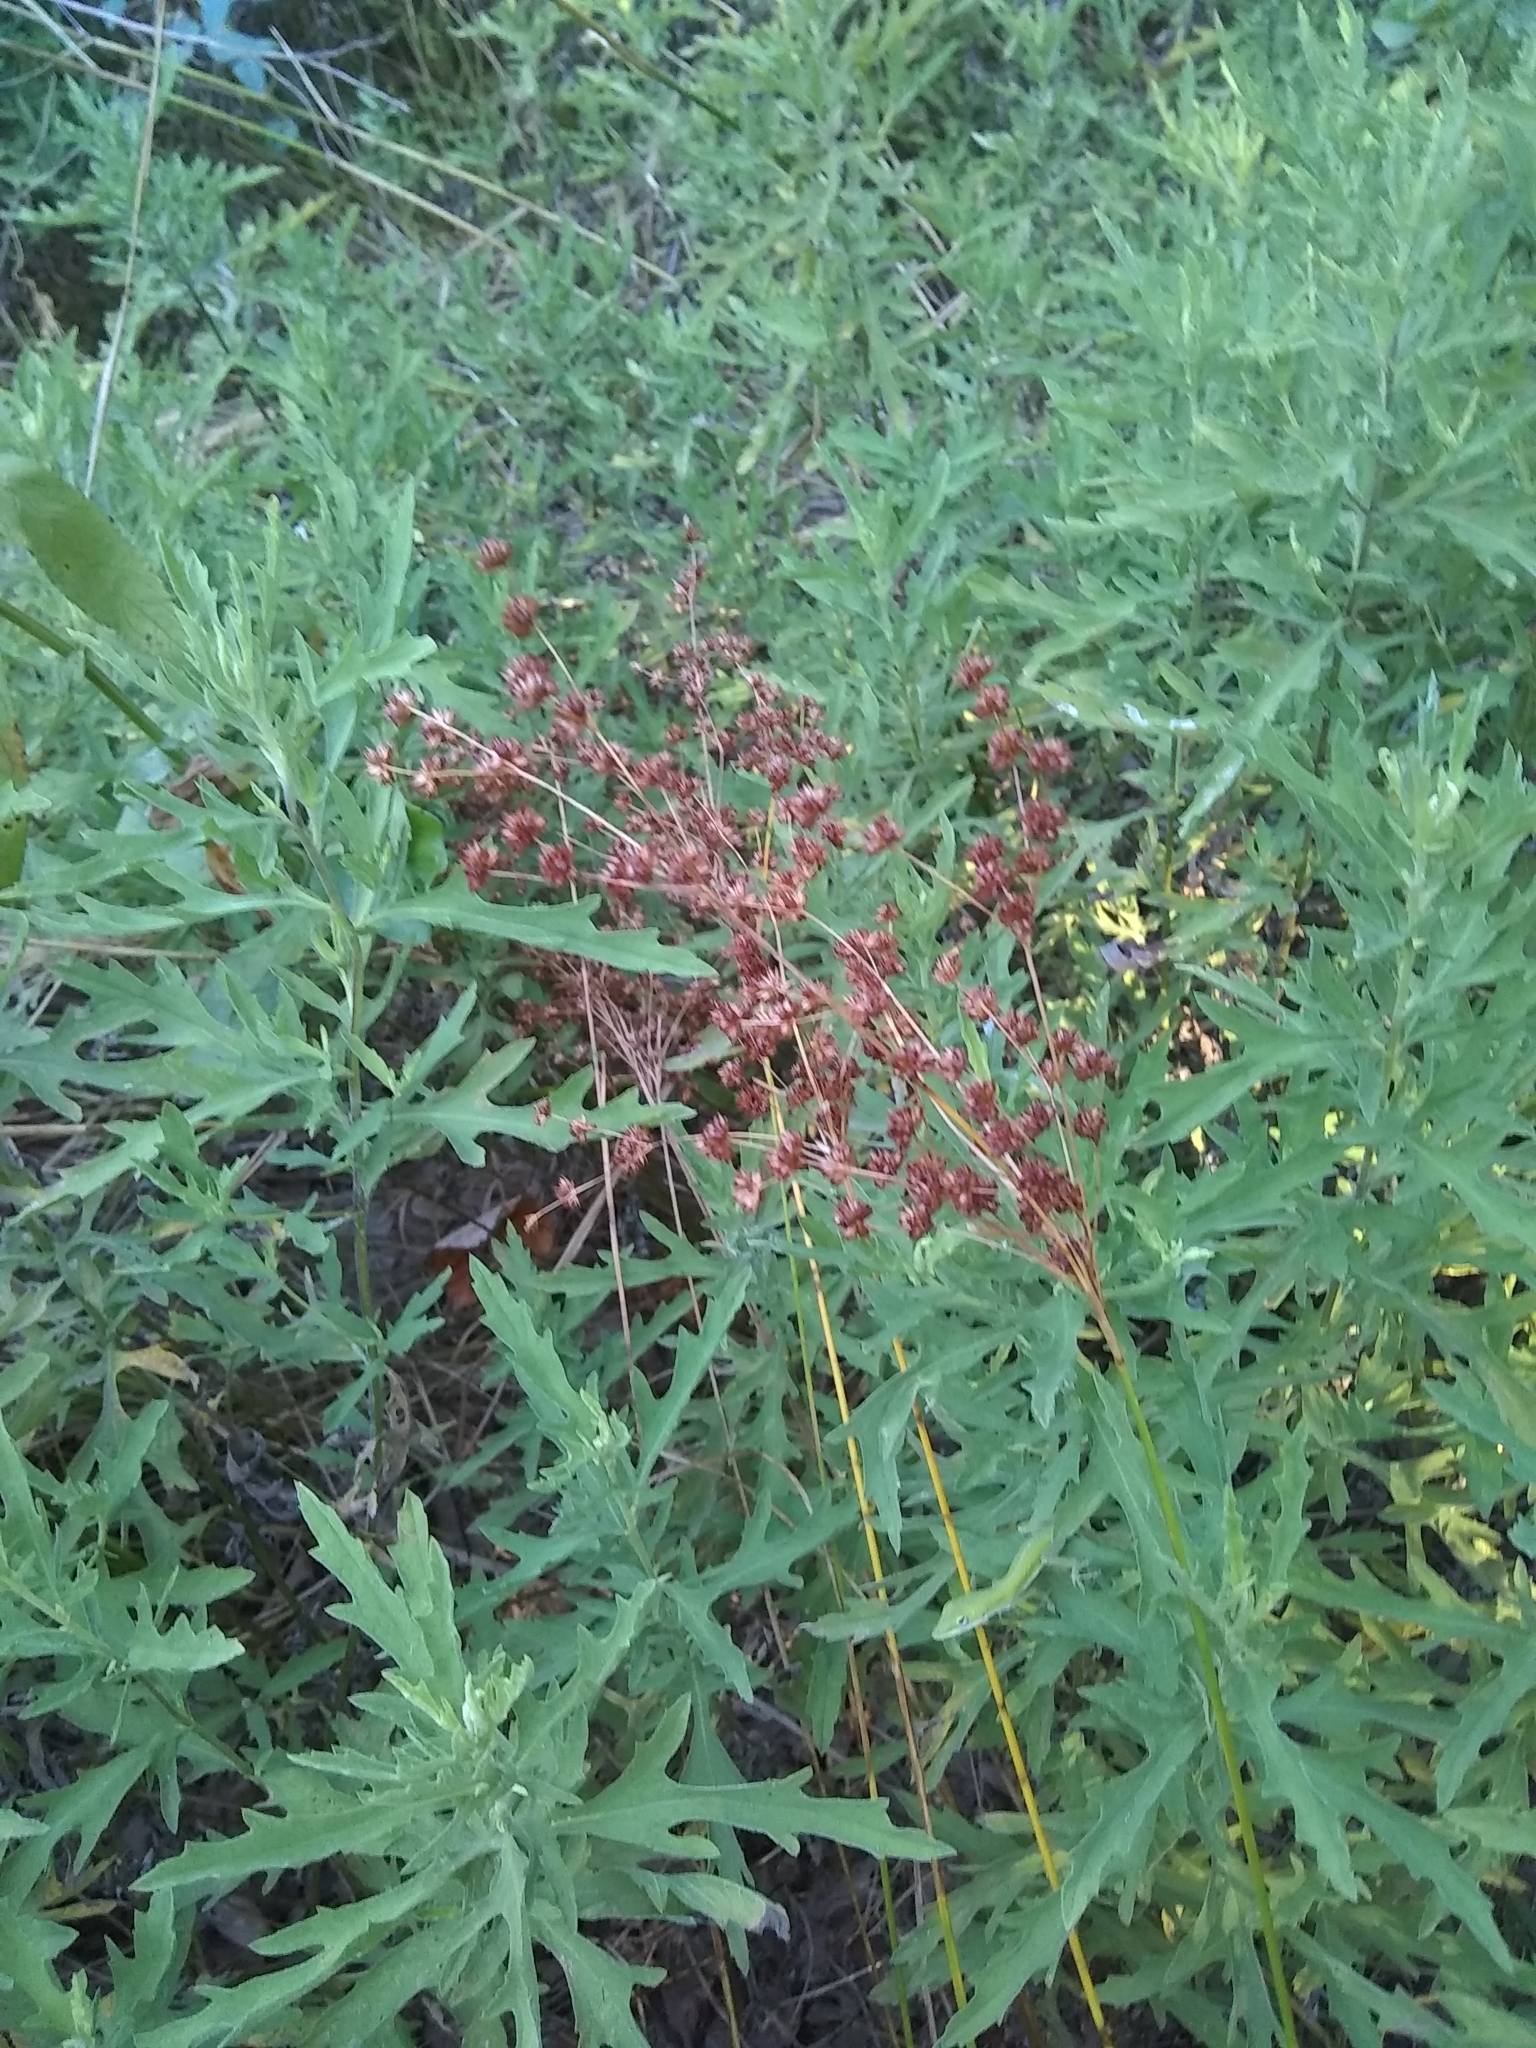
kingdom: Plantae
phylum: Tracheophyta
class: Liliopsida
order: Poales
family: Juncaceae
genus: Juncus
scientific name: Juncus marginatus
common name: Grass-leaf rush
